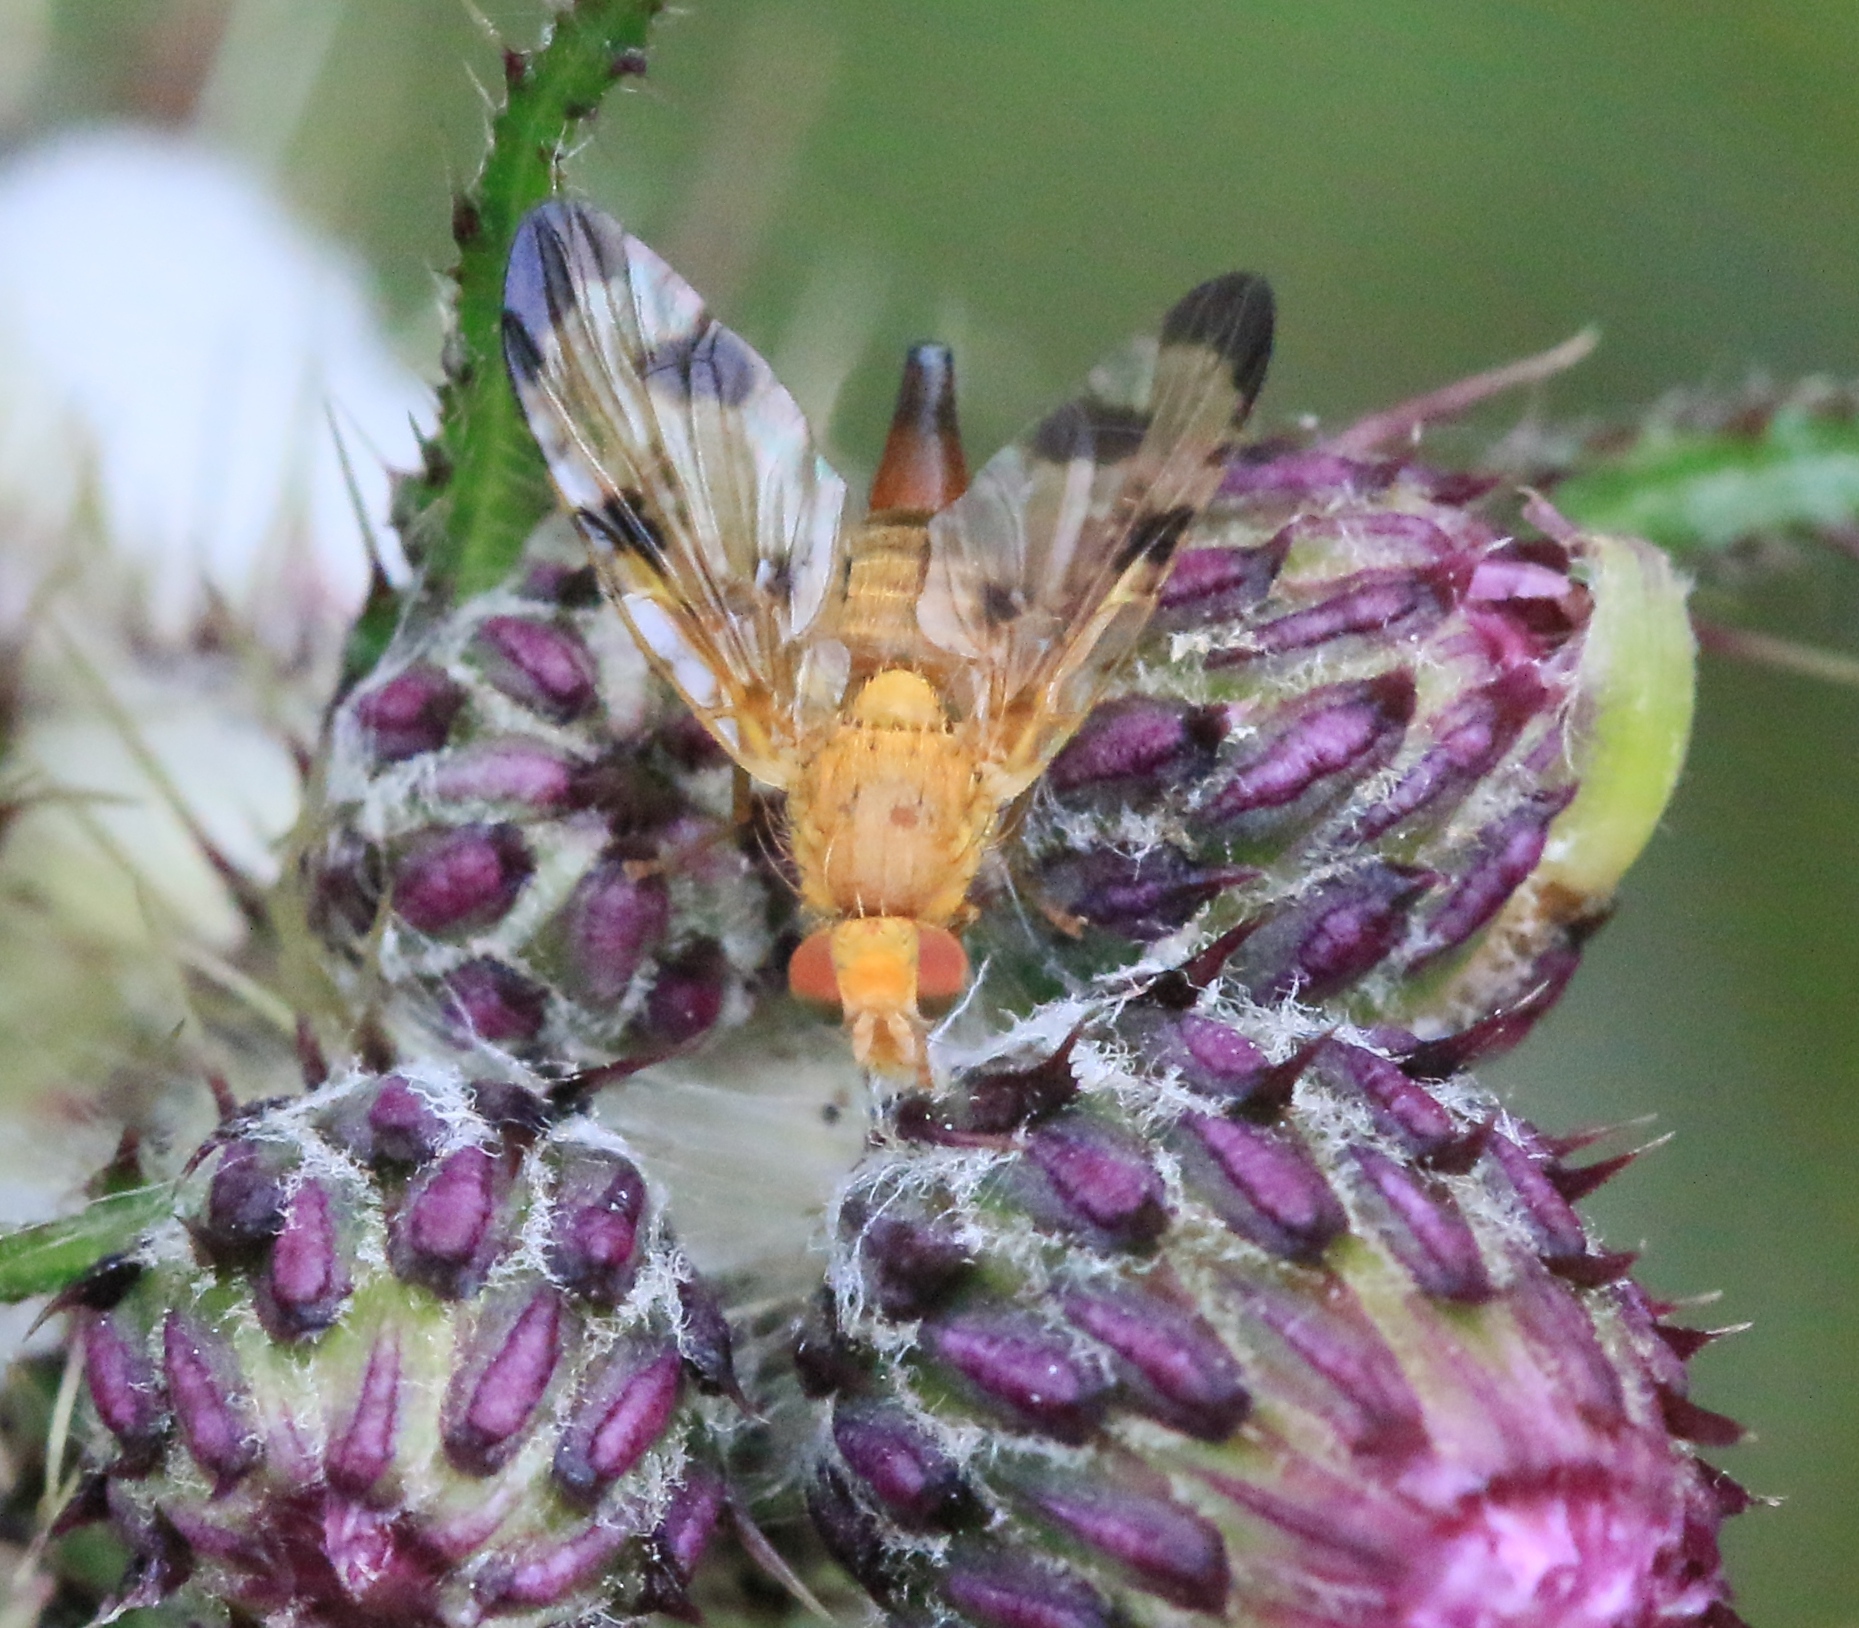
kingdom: Animalia
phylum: Arthropoda
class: Insecta
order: Diptera
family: Tephritidae
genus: Xyphosia
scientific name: Xyphosia miliaria
